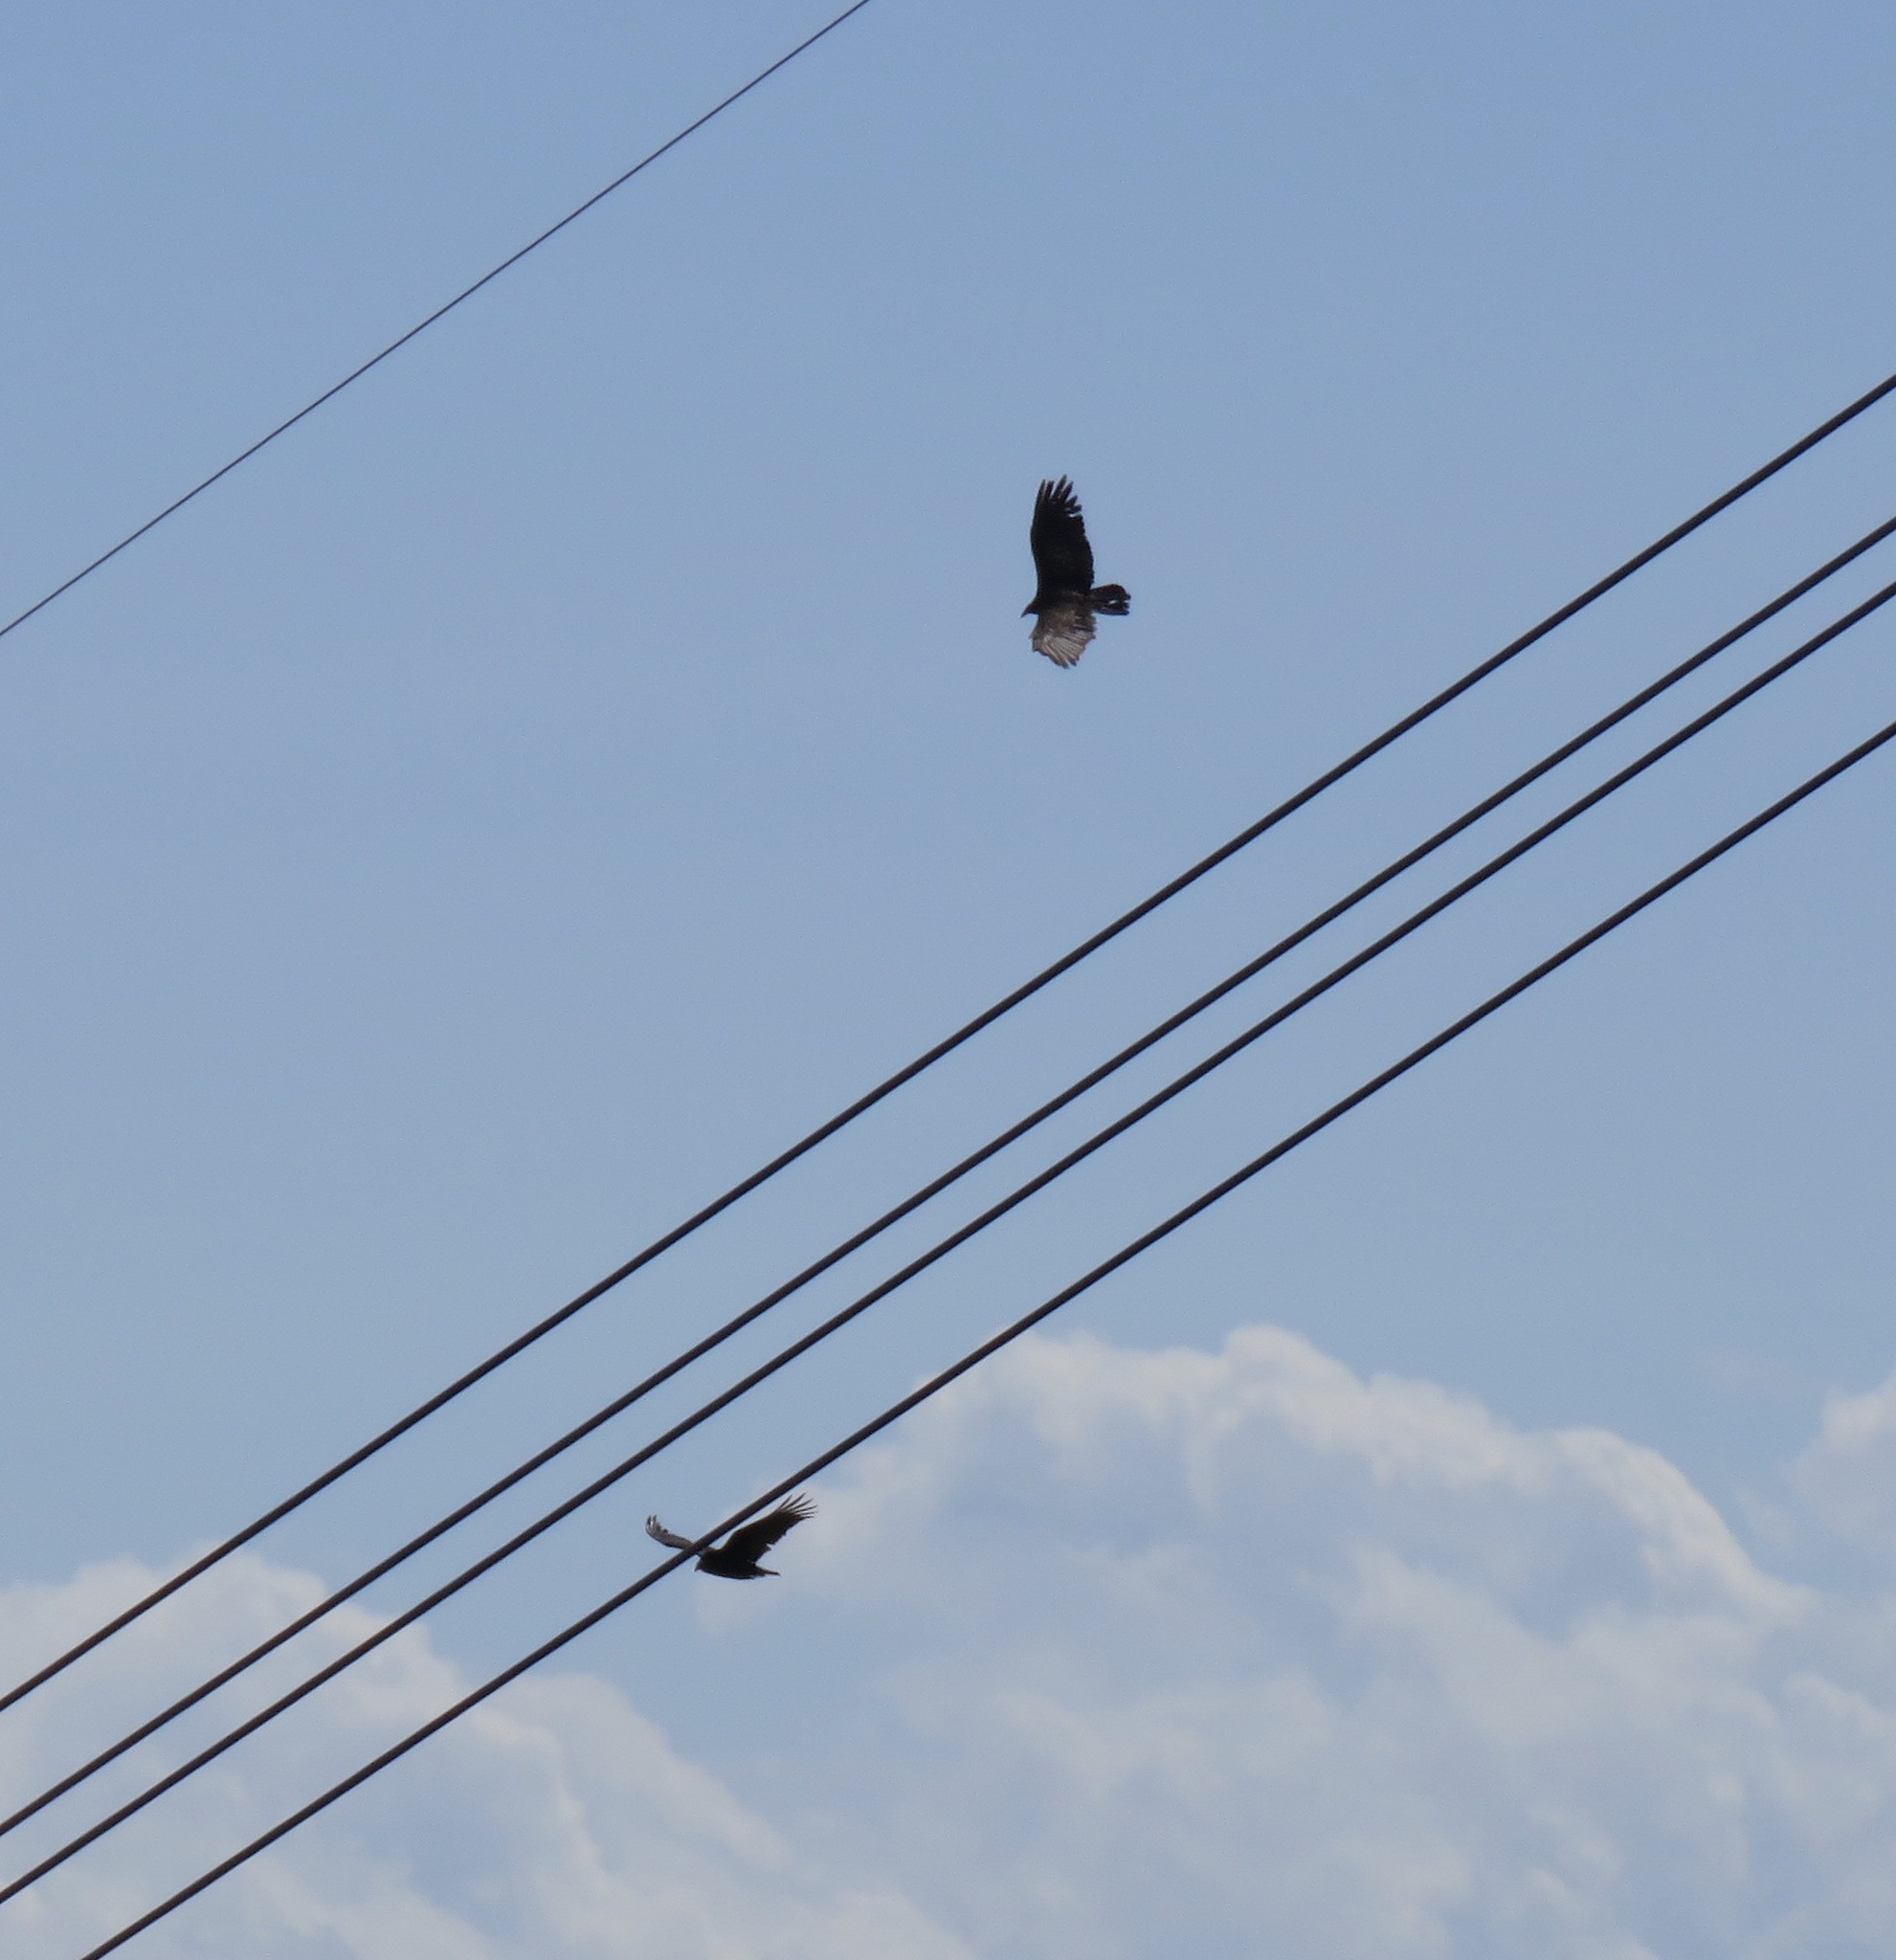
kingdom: Animalia
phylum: Chordata
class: Aves
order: Accipitriformes
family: Cathartidae
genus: Cathartes
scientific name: Cathartes aura
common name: Turkey vulture
